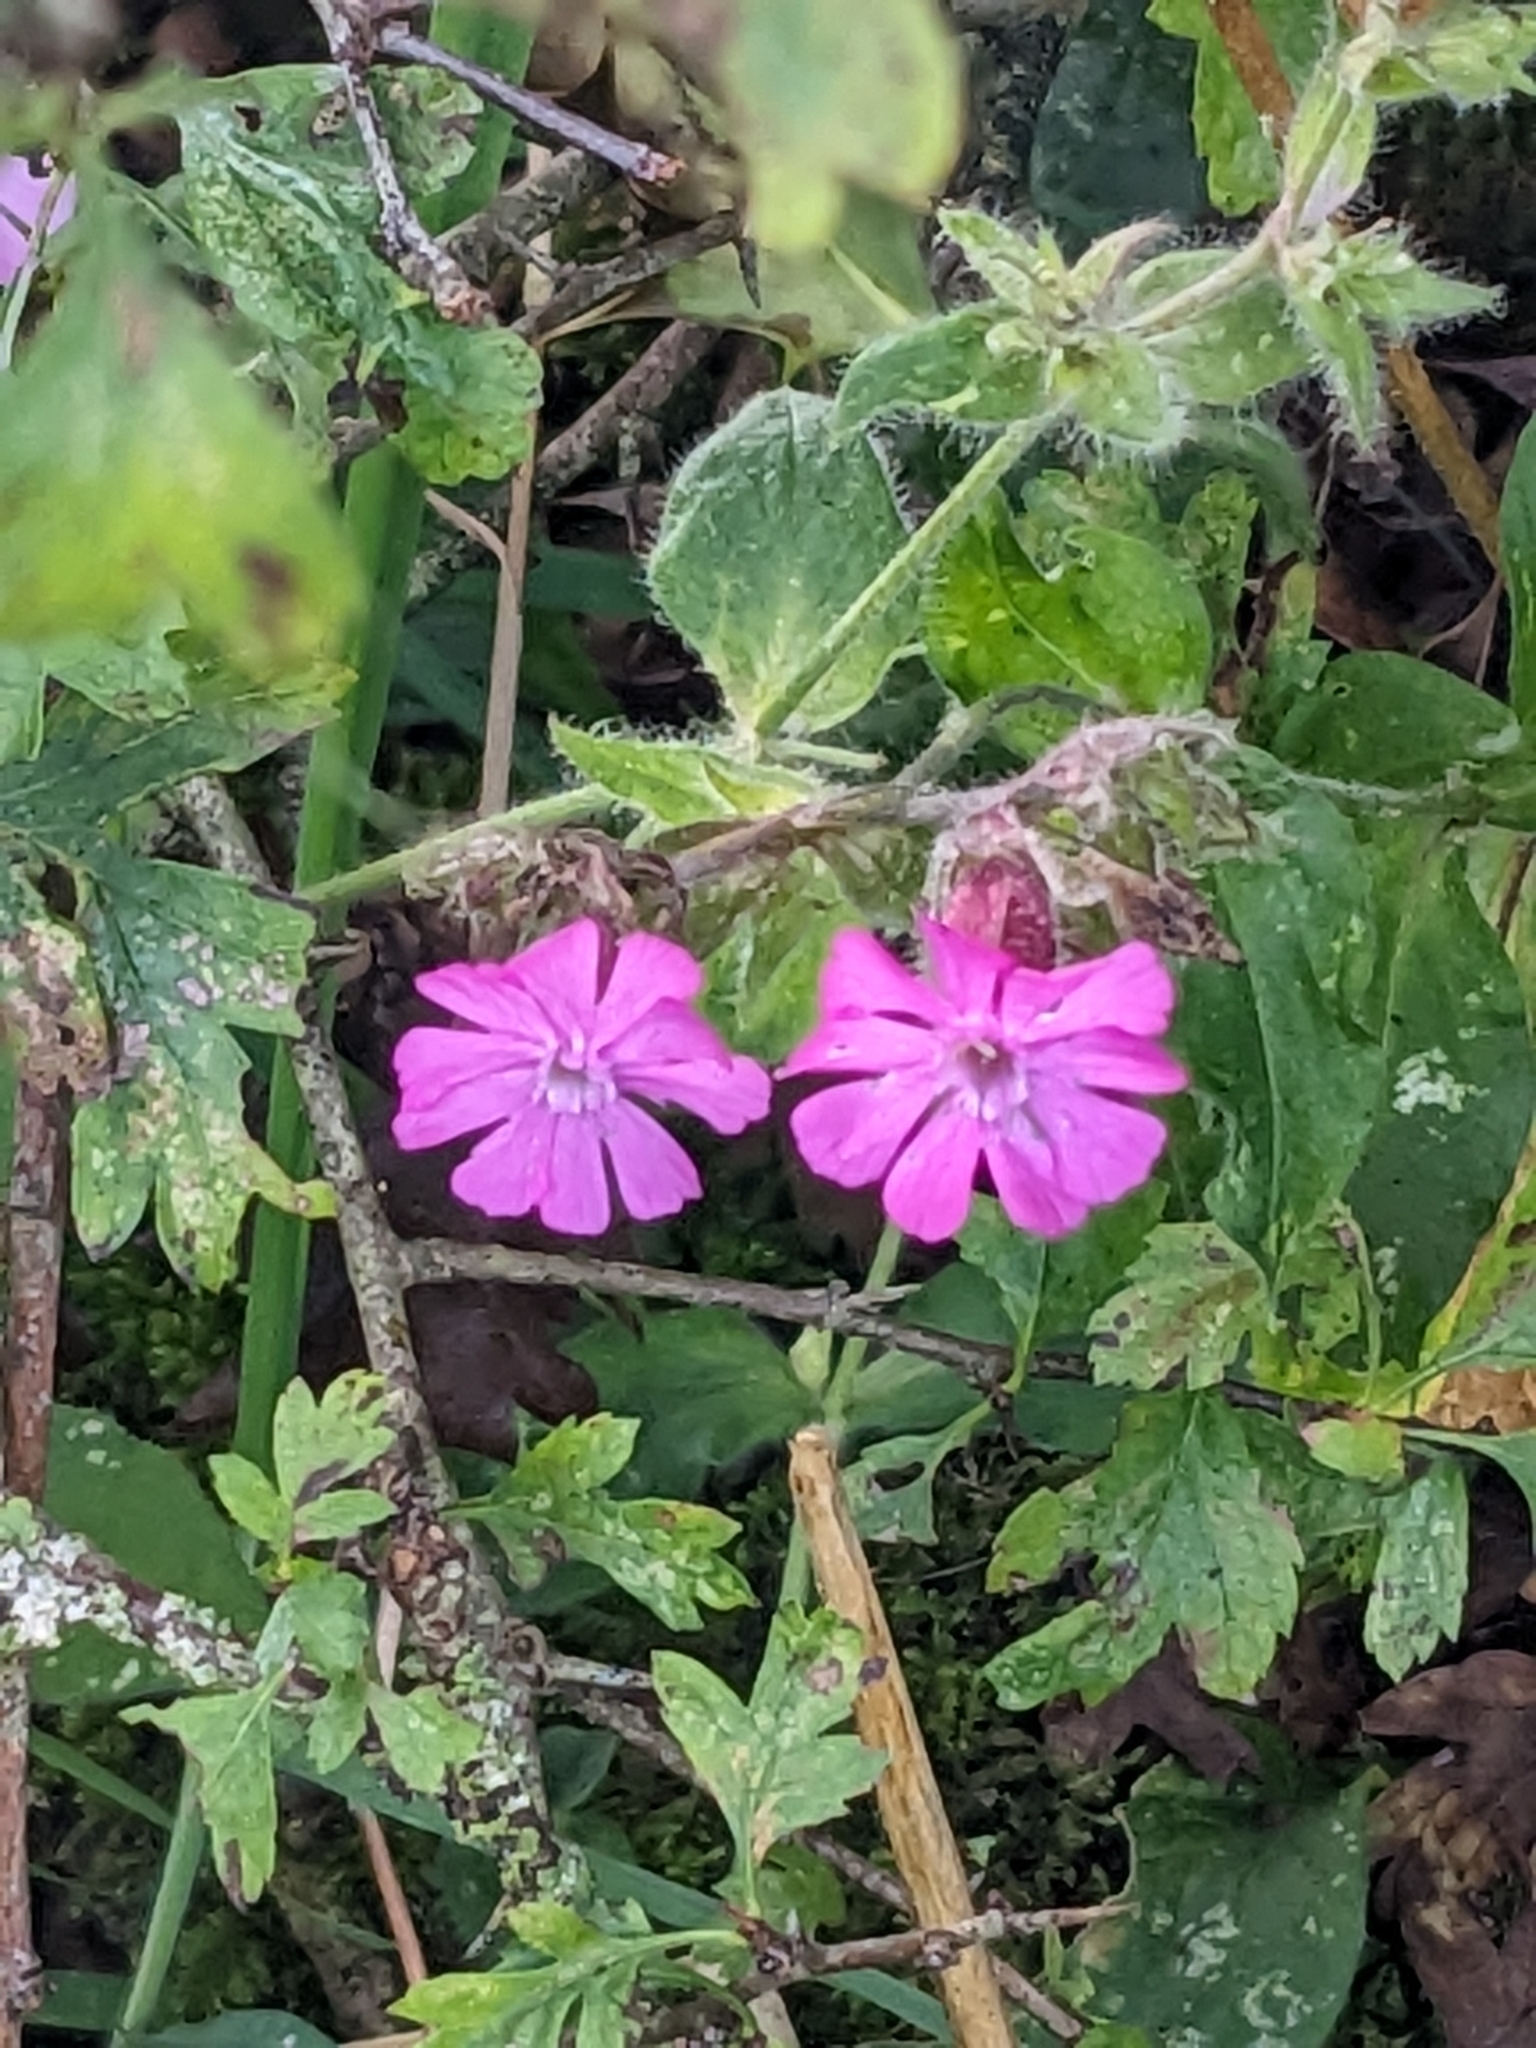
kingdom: Plantae
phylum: Tracheophyta
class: Magnoliopsida
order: Caryophyllales
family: Caryophyllaceae
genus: Silene
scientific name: Silene dioica
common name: Red campion
